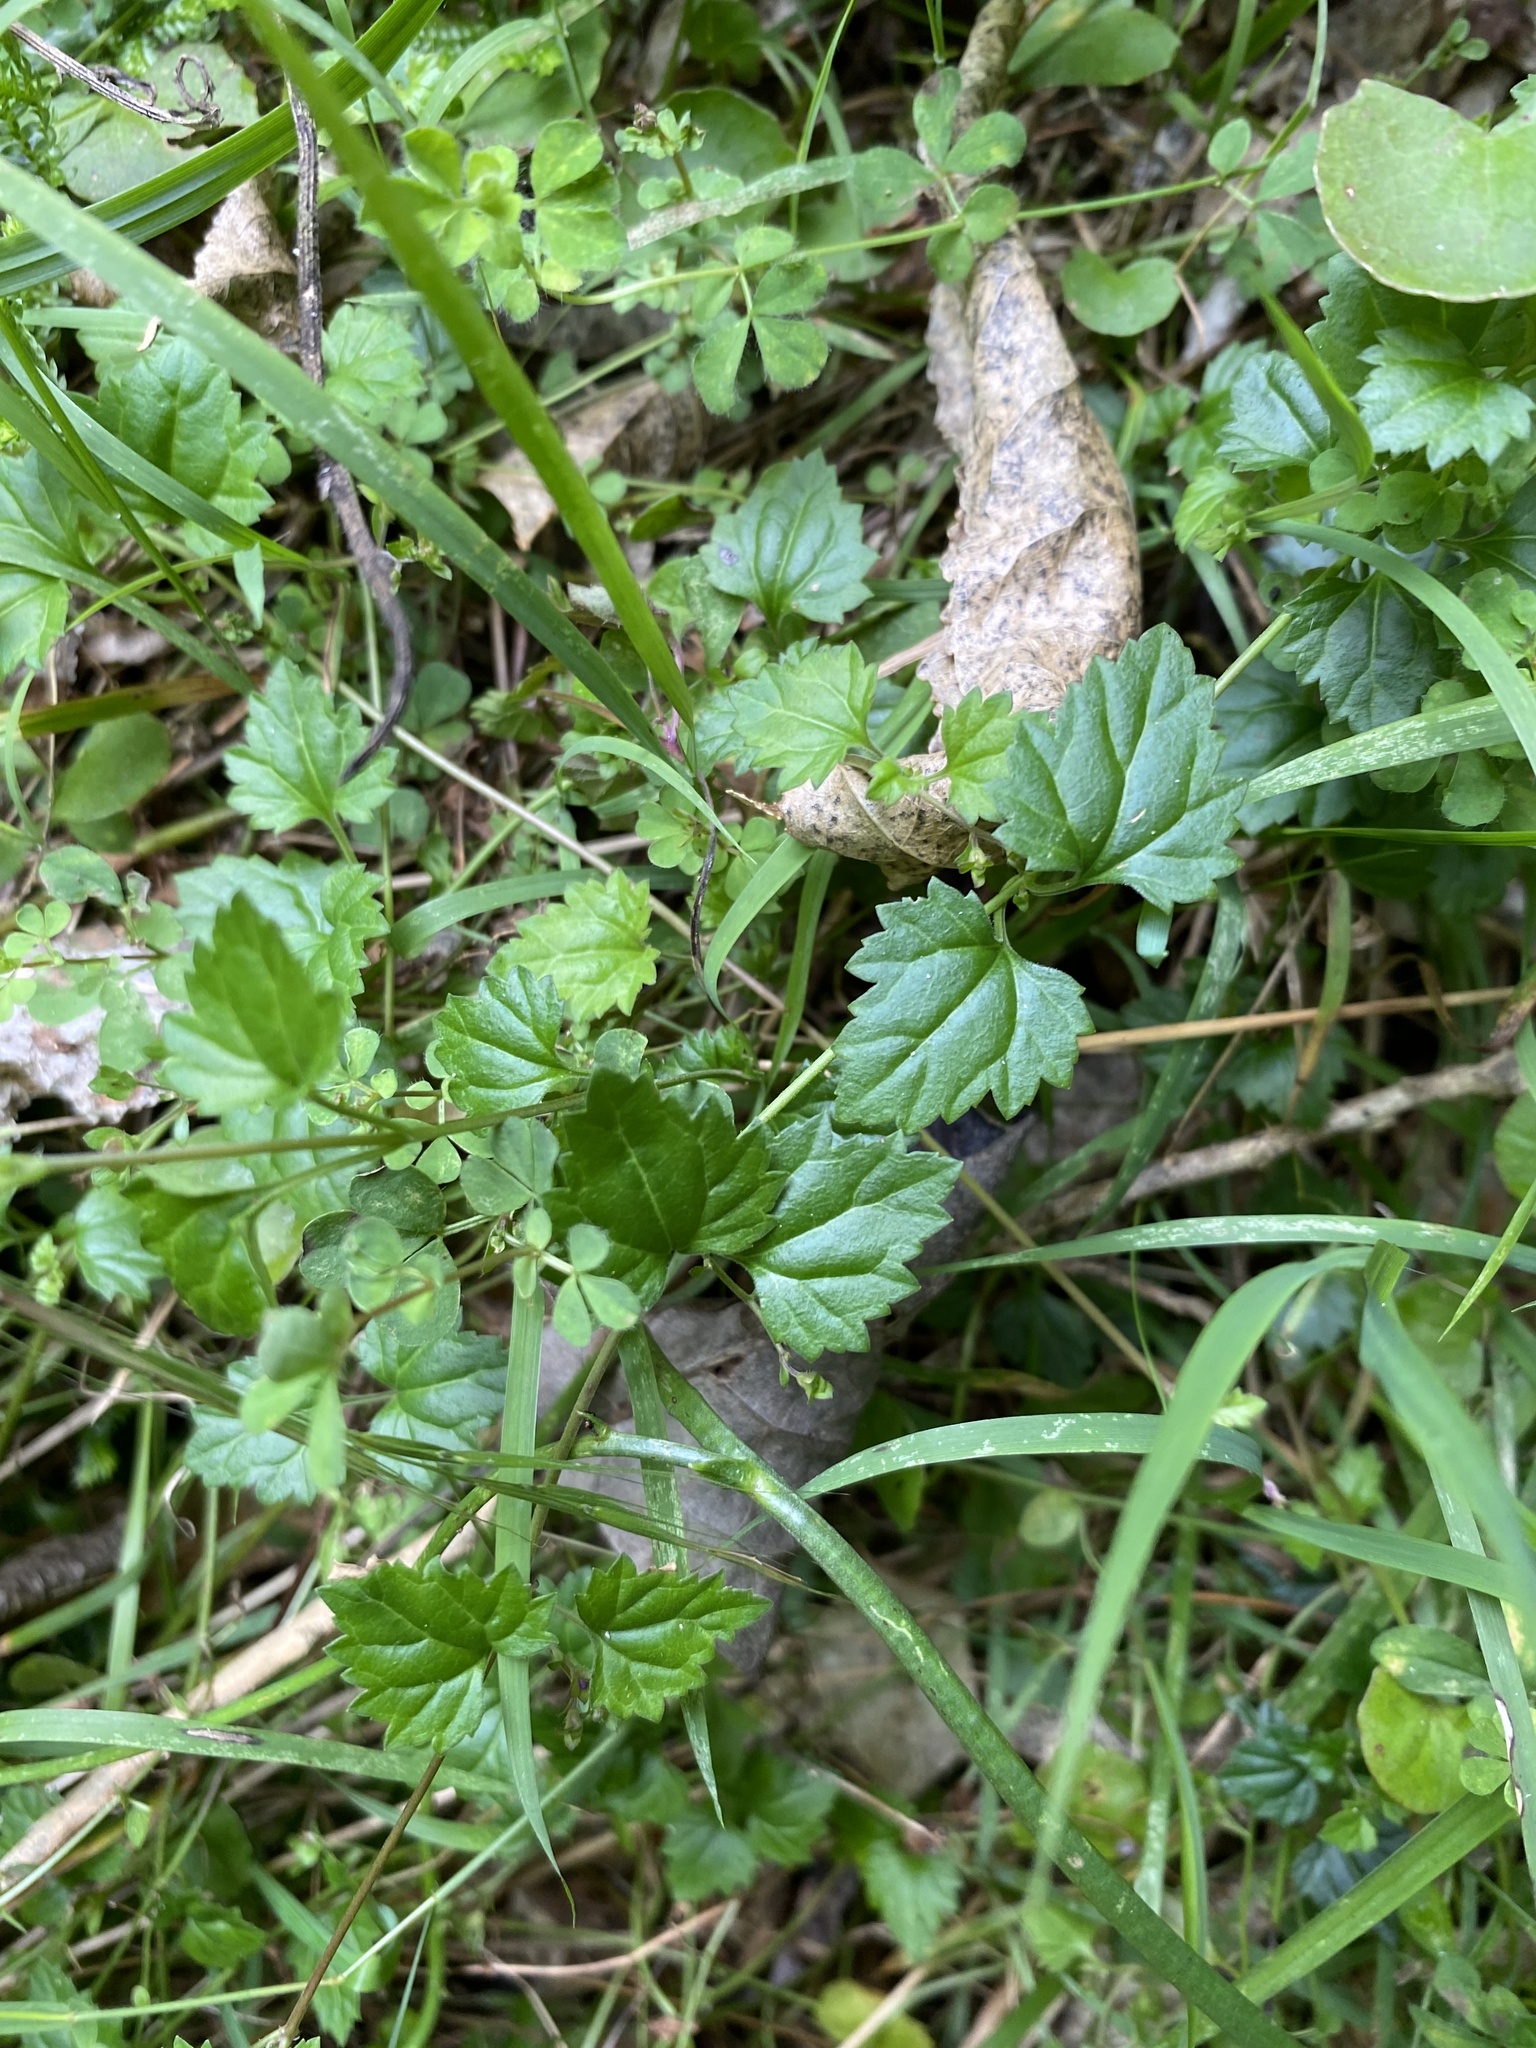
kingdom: Plantae
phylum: Tracheophyta
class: Magnoliopsida
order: Lamiales
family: Plantaginaceae
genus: Veronica
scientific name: Veronica plebeia
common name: Speedwell
